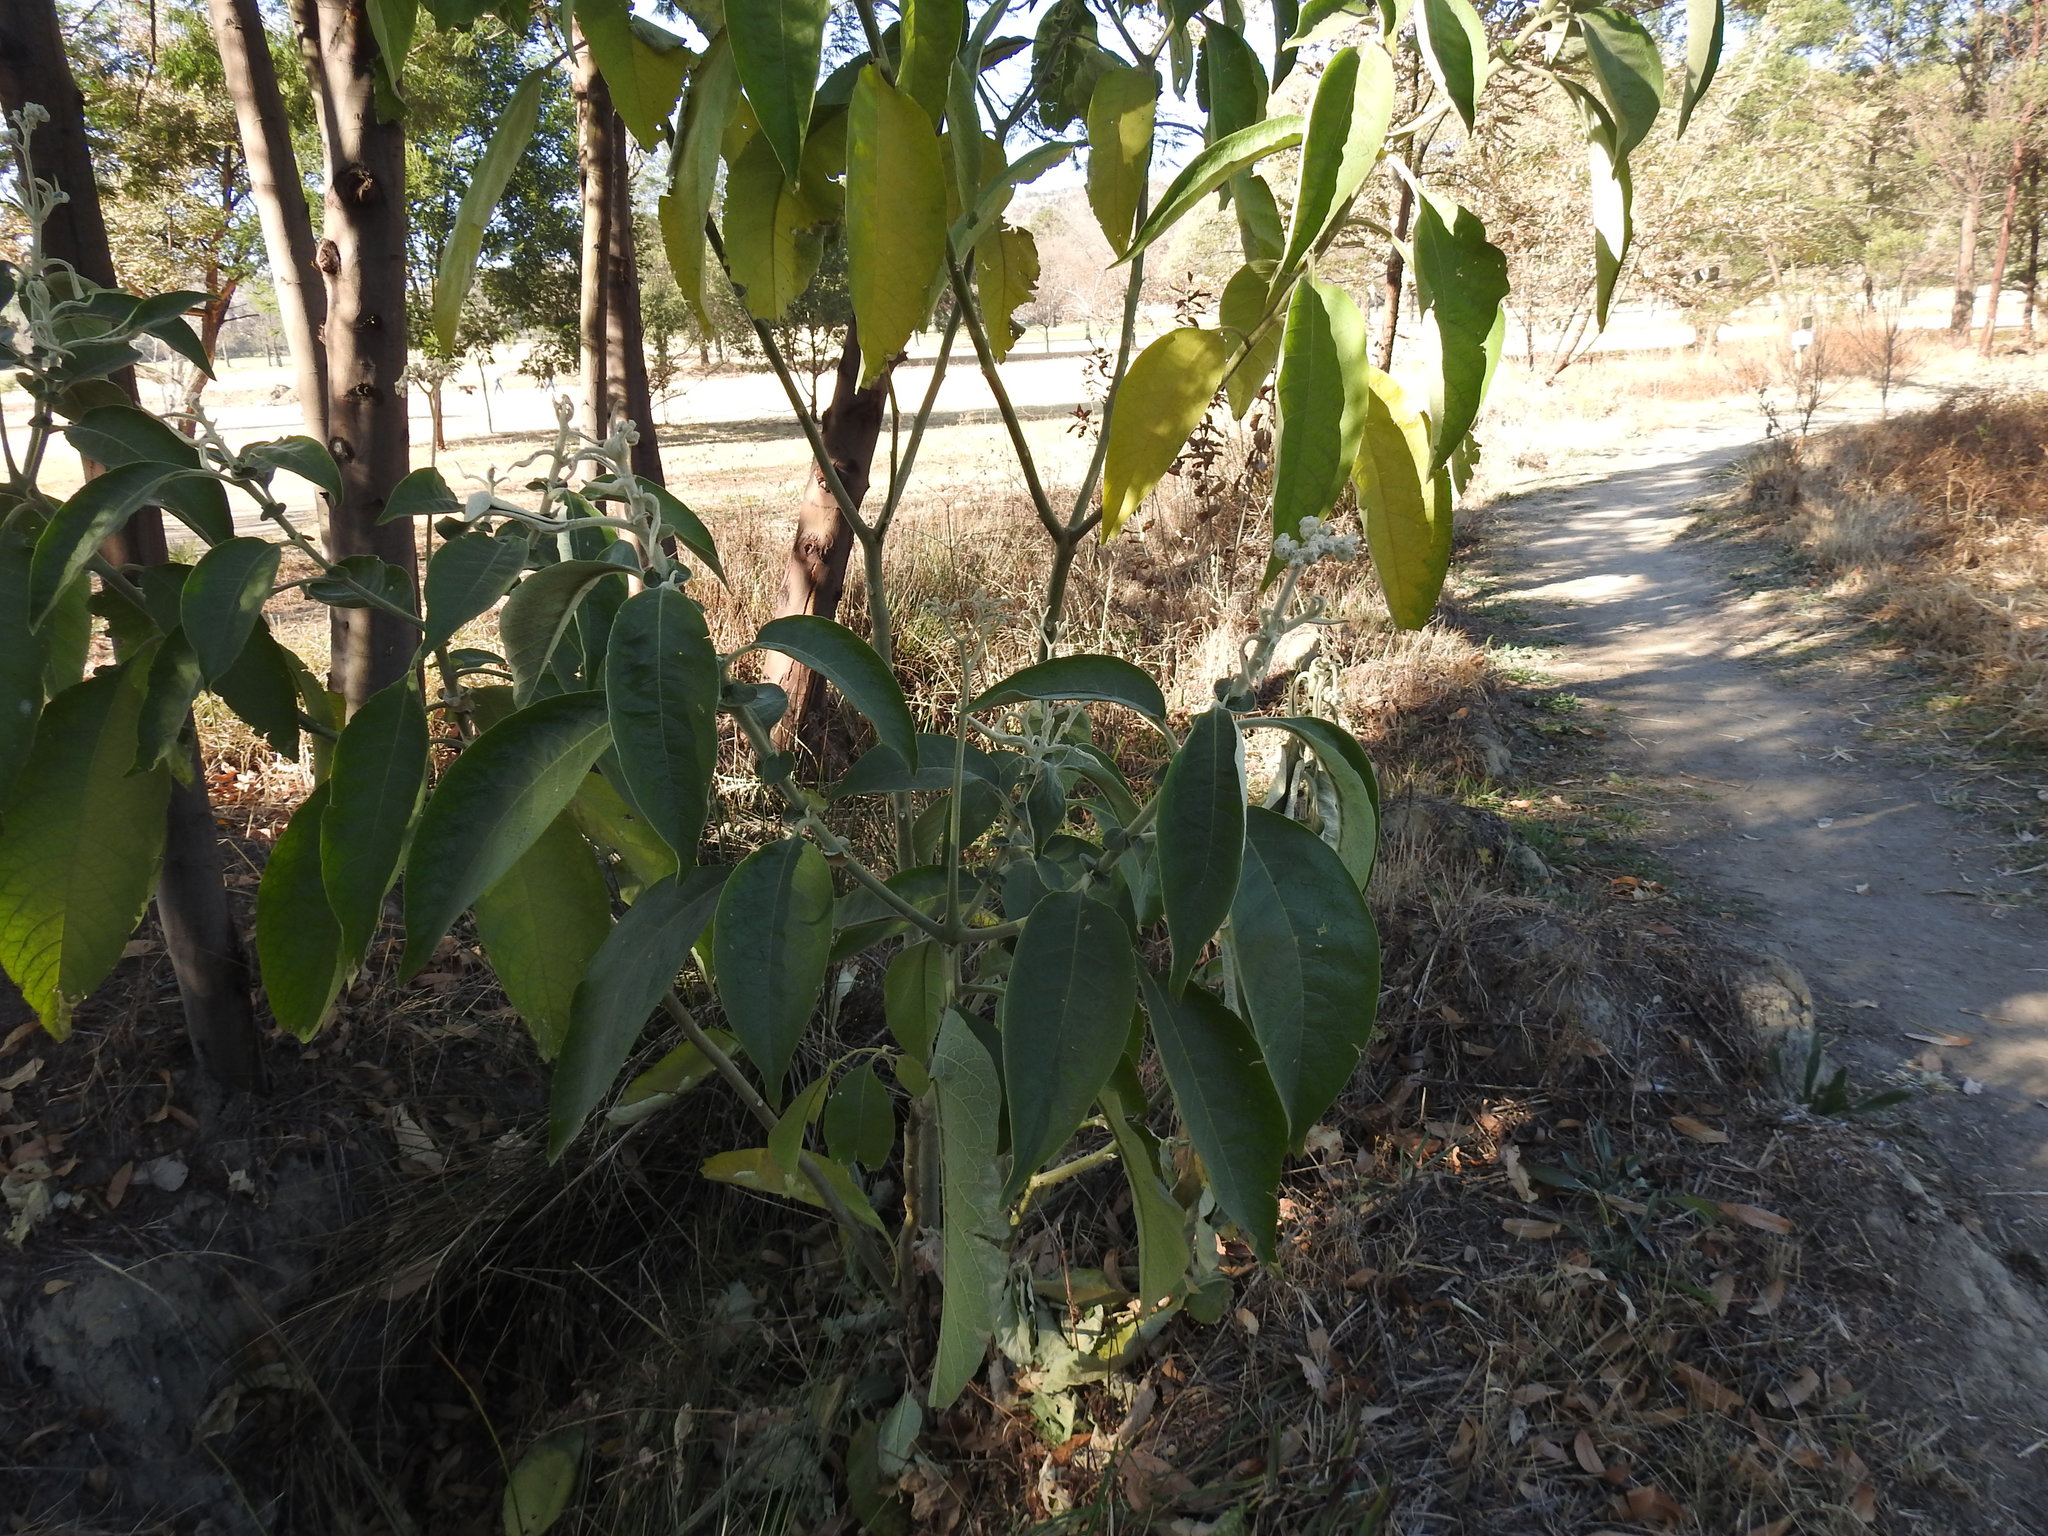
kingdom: Plantae
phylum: Tracheophyta
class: Magnoliopsida
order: Solanales
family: Solanaceae
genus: Solanum
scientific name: Solanum mauritianum
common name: Earleaf nightshade
